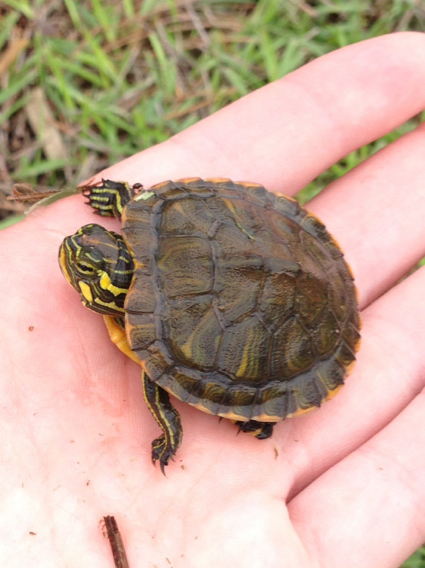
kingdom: Animalia
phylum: Chordata
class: Testudines
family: Emydidae
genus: Trachemys
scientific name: Trachemys scripta
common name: Slider
